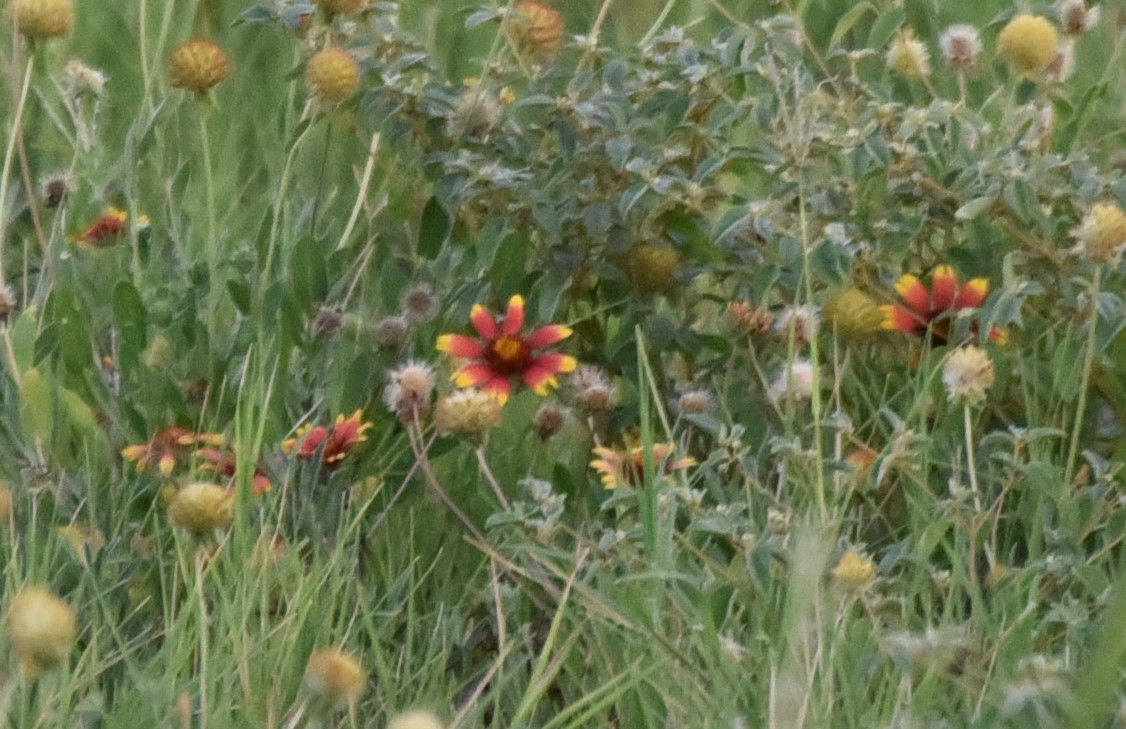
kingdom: Plantae
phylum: Tracheophyta
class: Magnoliopsida
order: Asterales
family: Asteraceae
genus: Gaillardia
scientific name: Gaillardia pulchella
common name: Firewheel
